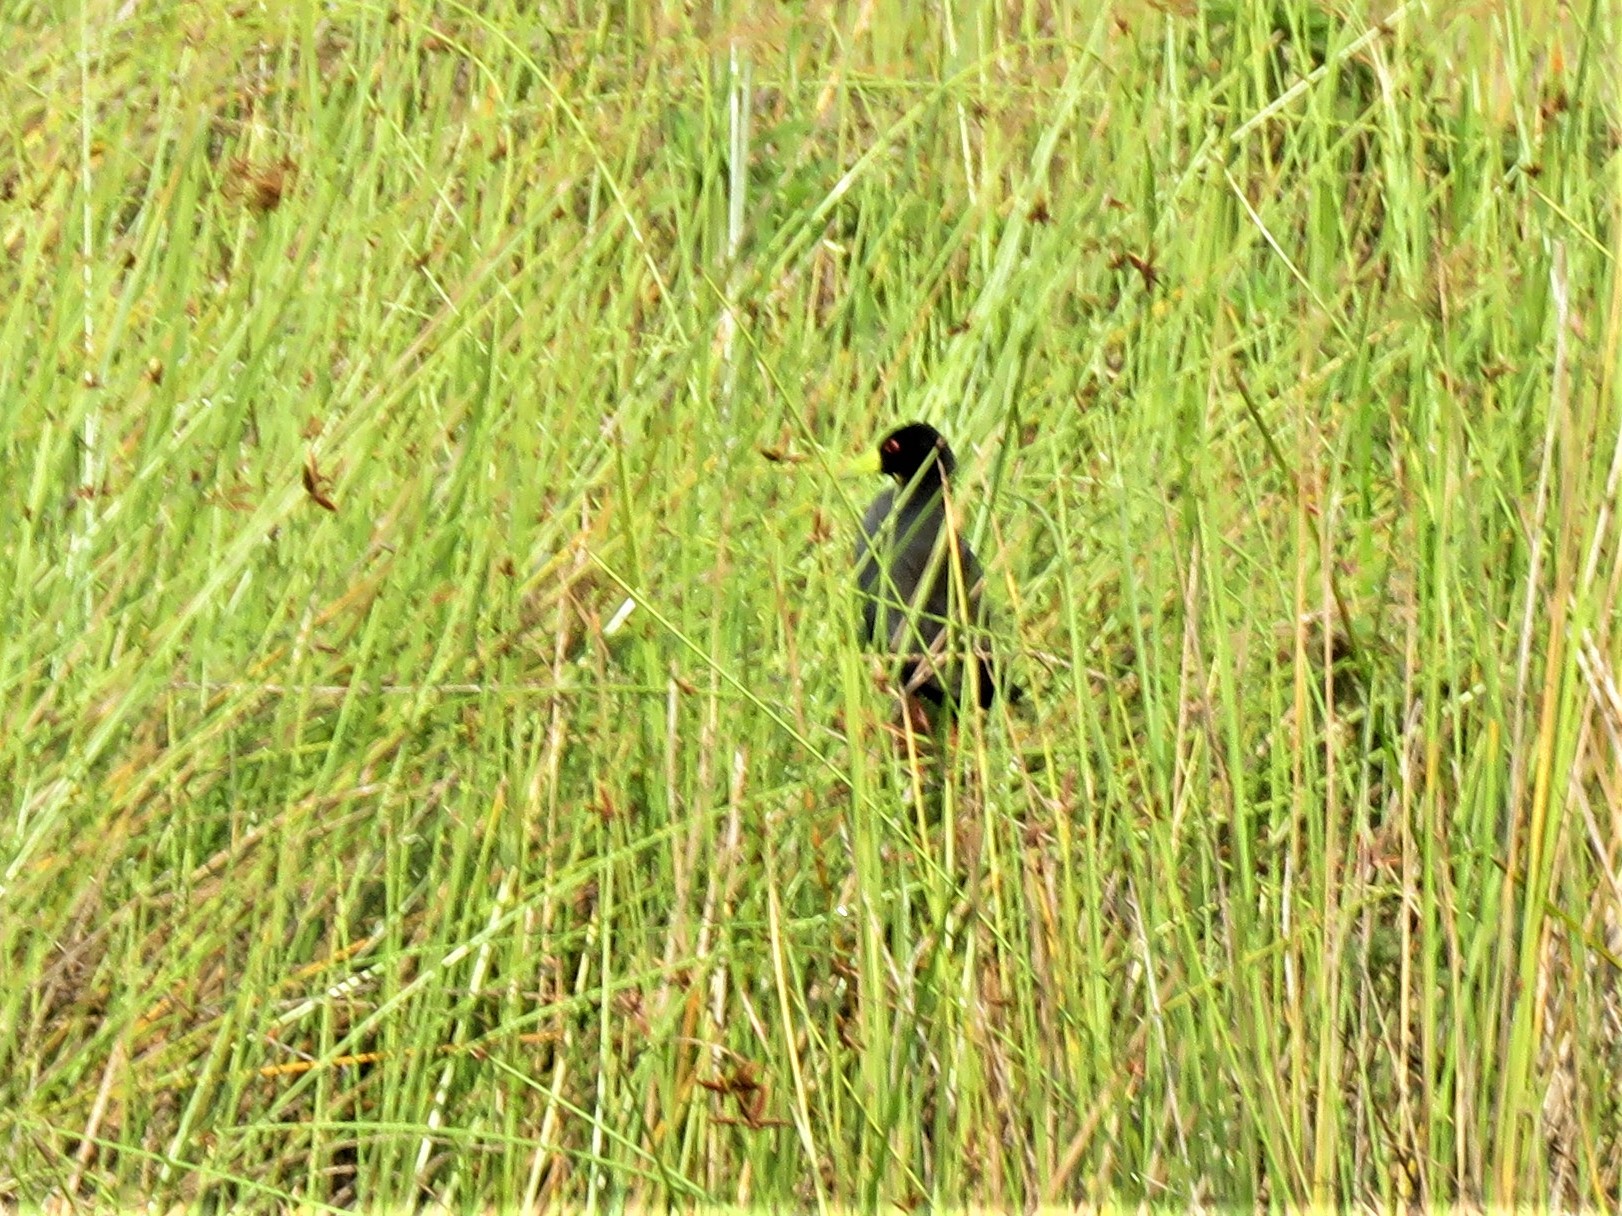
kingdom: Animalia
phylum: Chordata
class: Aves
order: Gruiformes
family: Rallidae
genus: Amaurornis
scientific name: Amaurornis flavirostra
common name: Black crake
